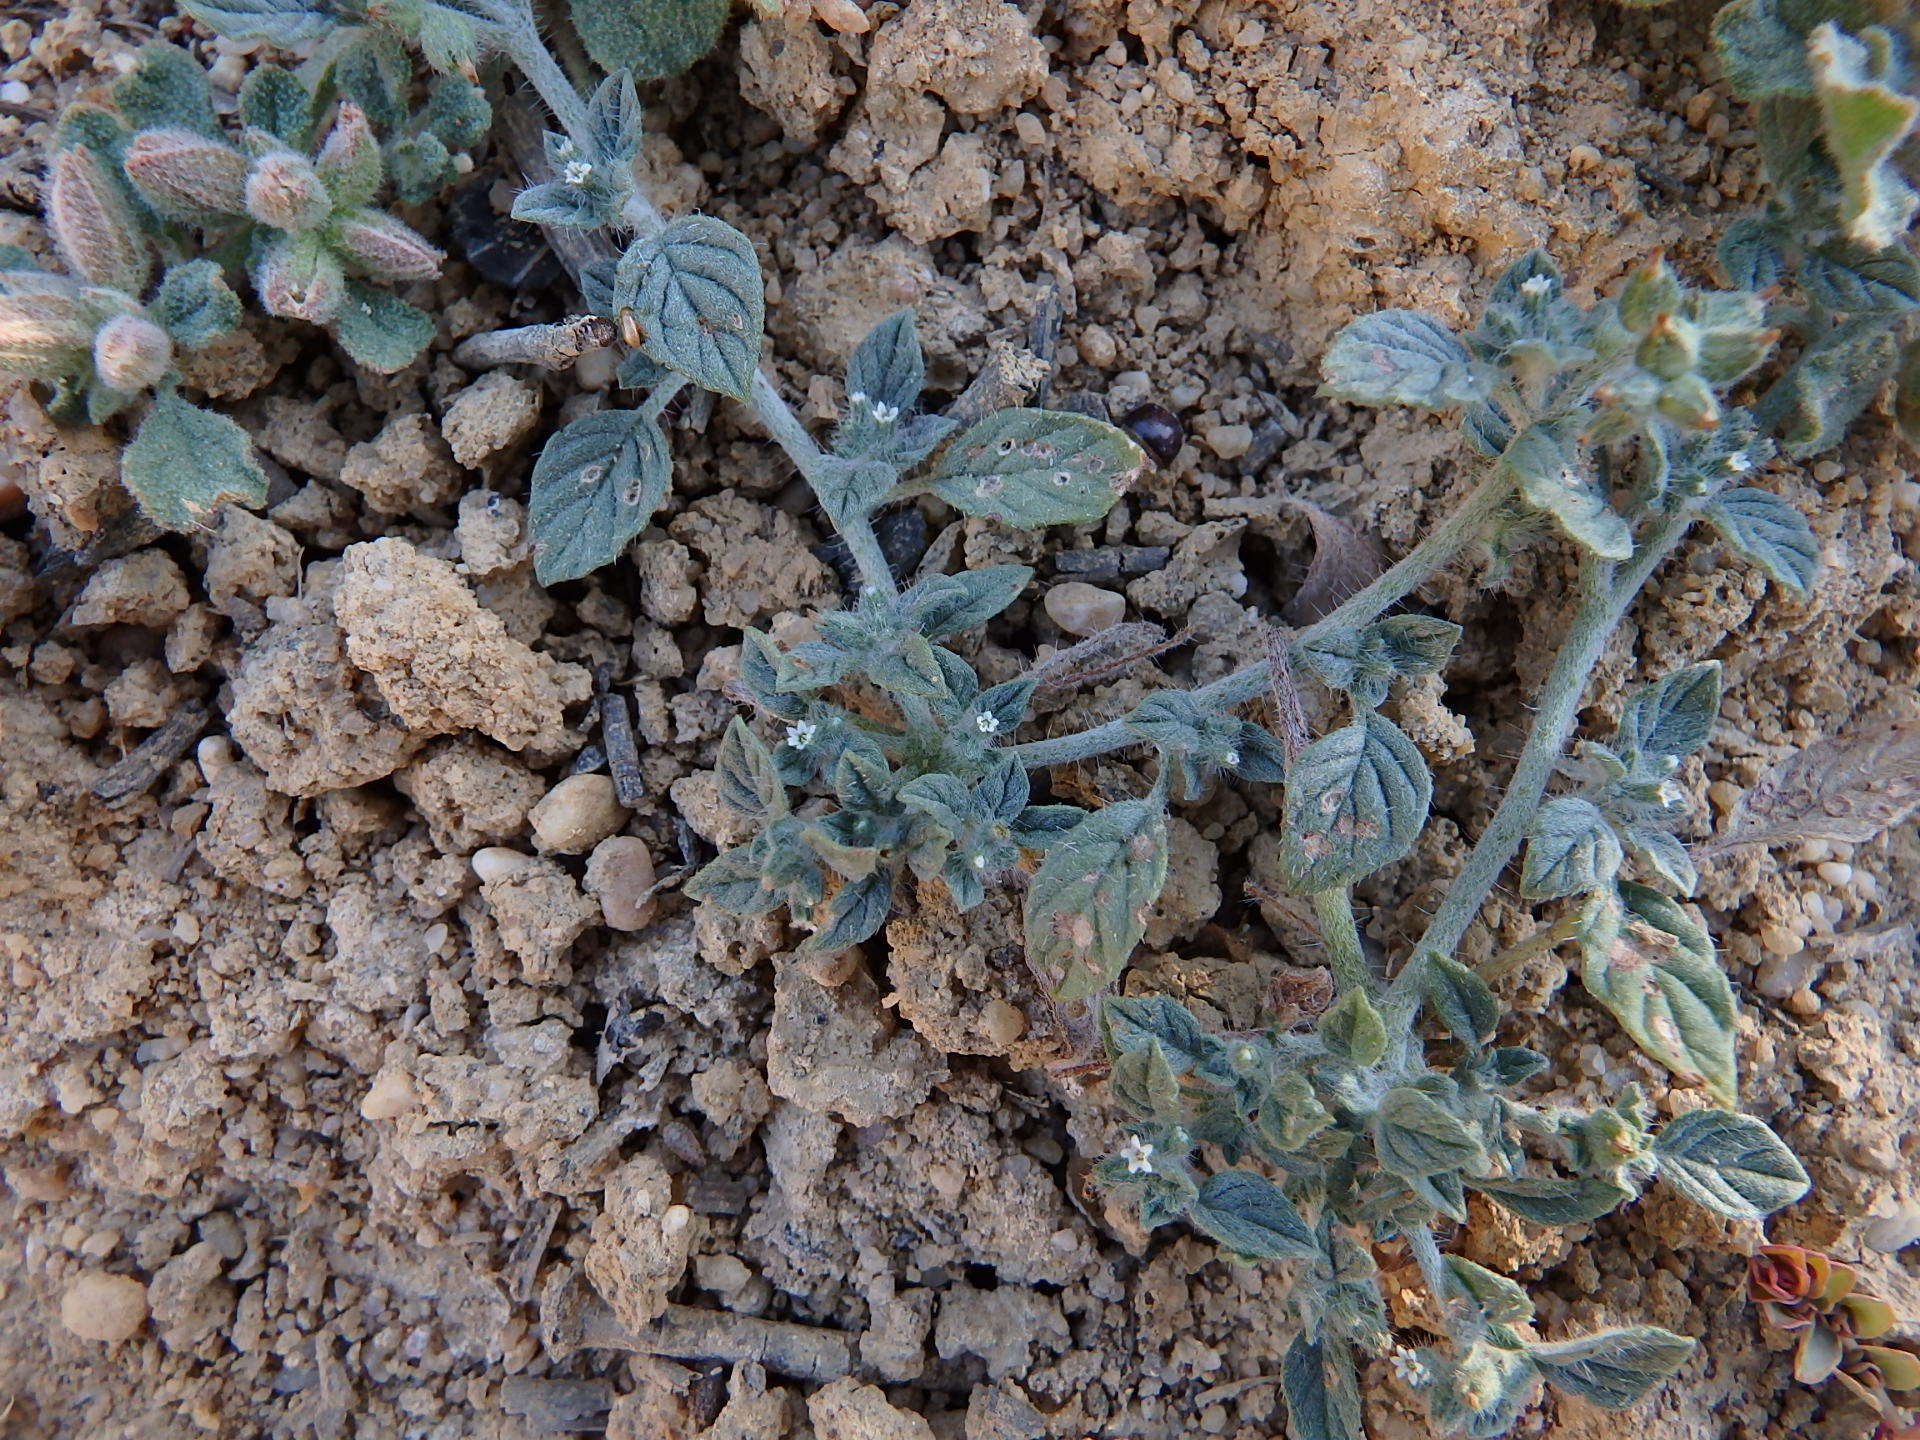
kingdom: Plantae
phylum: Tracheophyta
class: Magnoliopsida
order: Boraginales
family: Heliotropiaceae
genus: Heliotropium
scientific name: Heliotropium supinum
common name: Dwarf heliotrope
